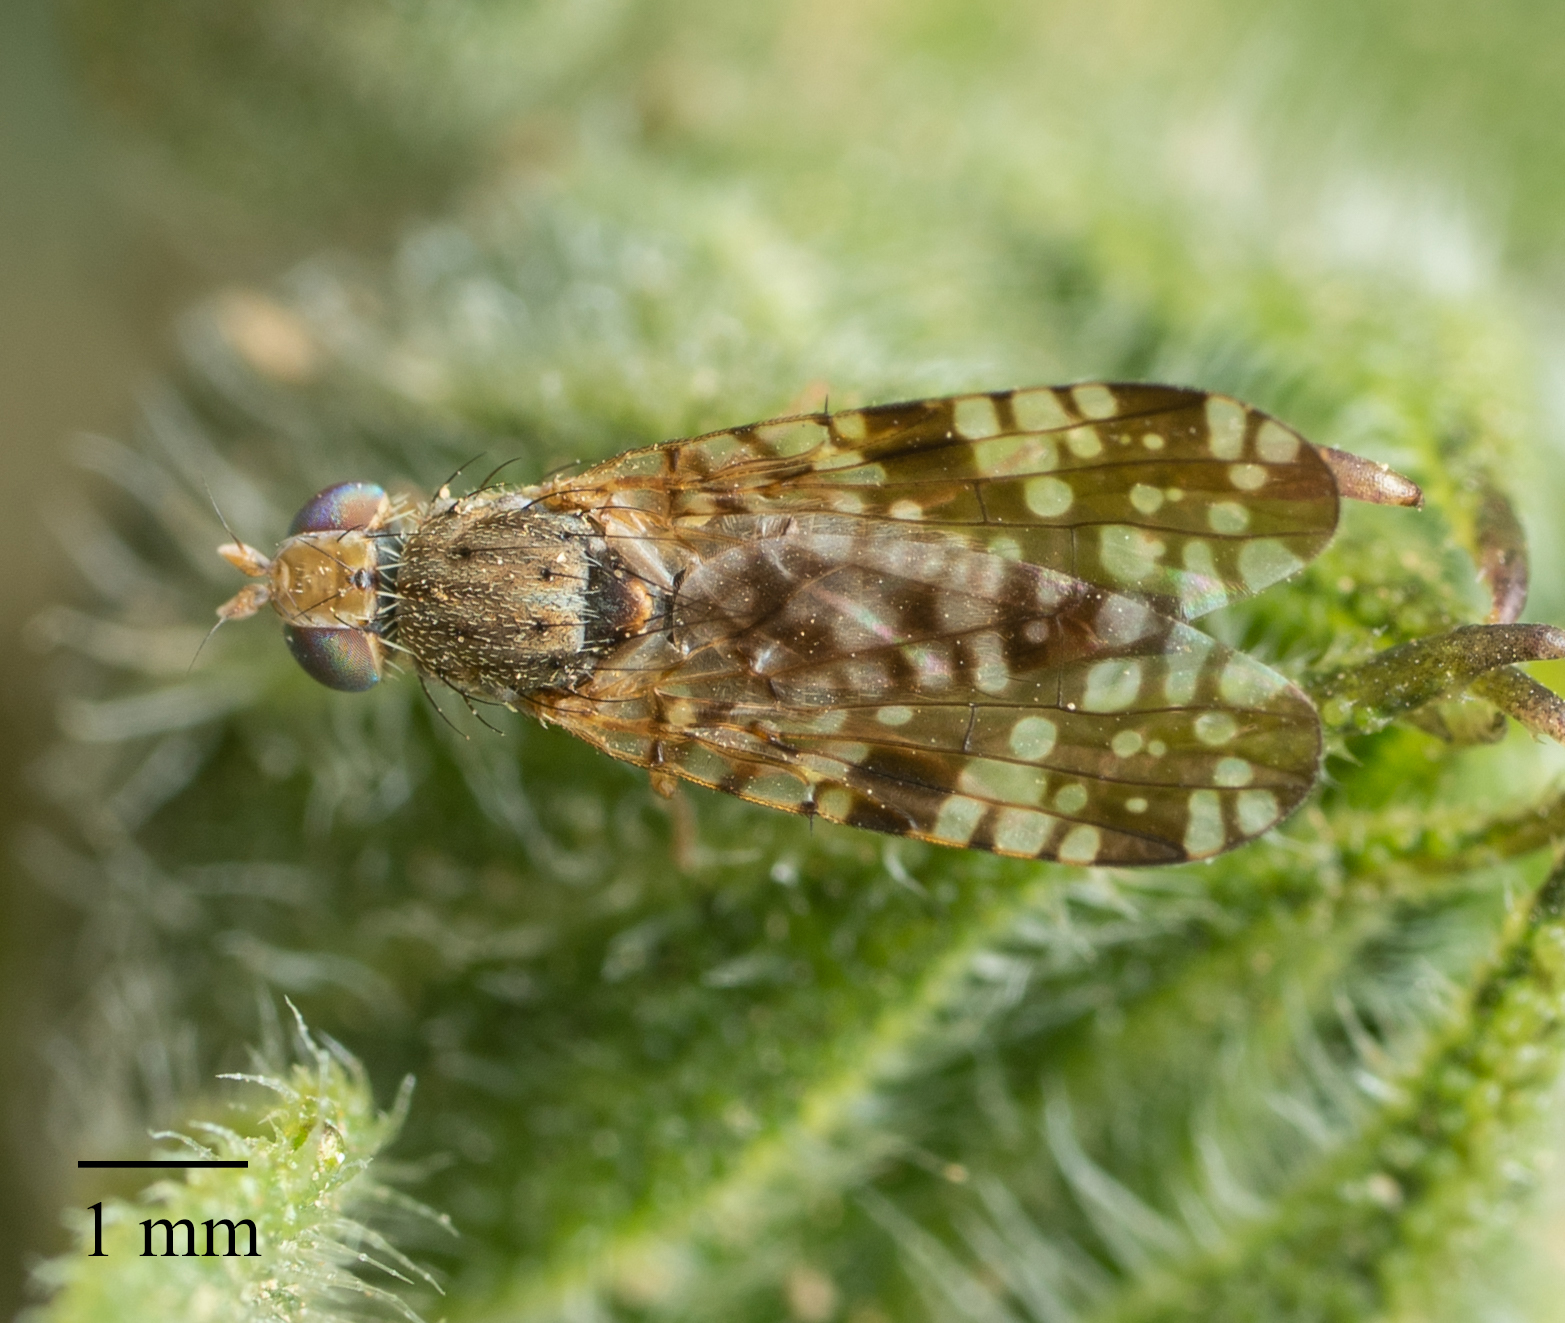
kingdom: Animalia
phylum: Arthropoda
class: Insecta
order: Diptera
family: Tephritidae
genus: Neotephritis
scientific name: Neotephritis finalis
